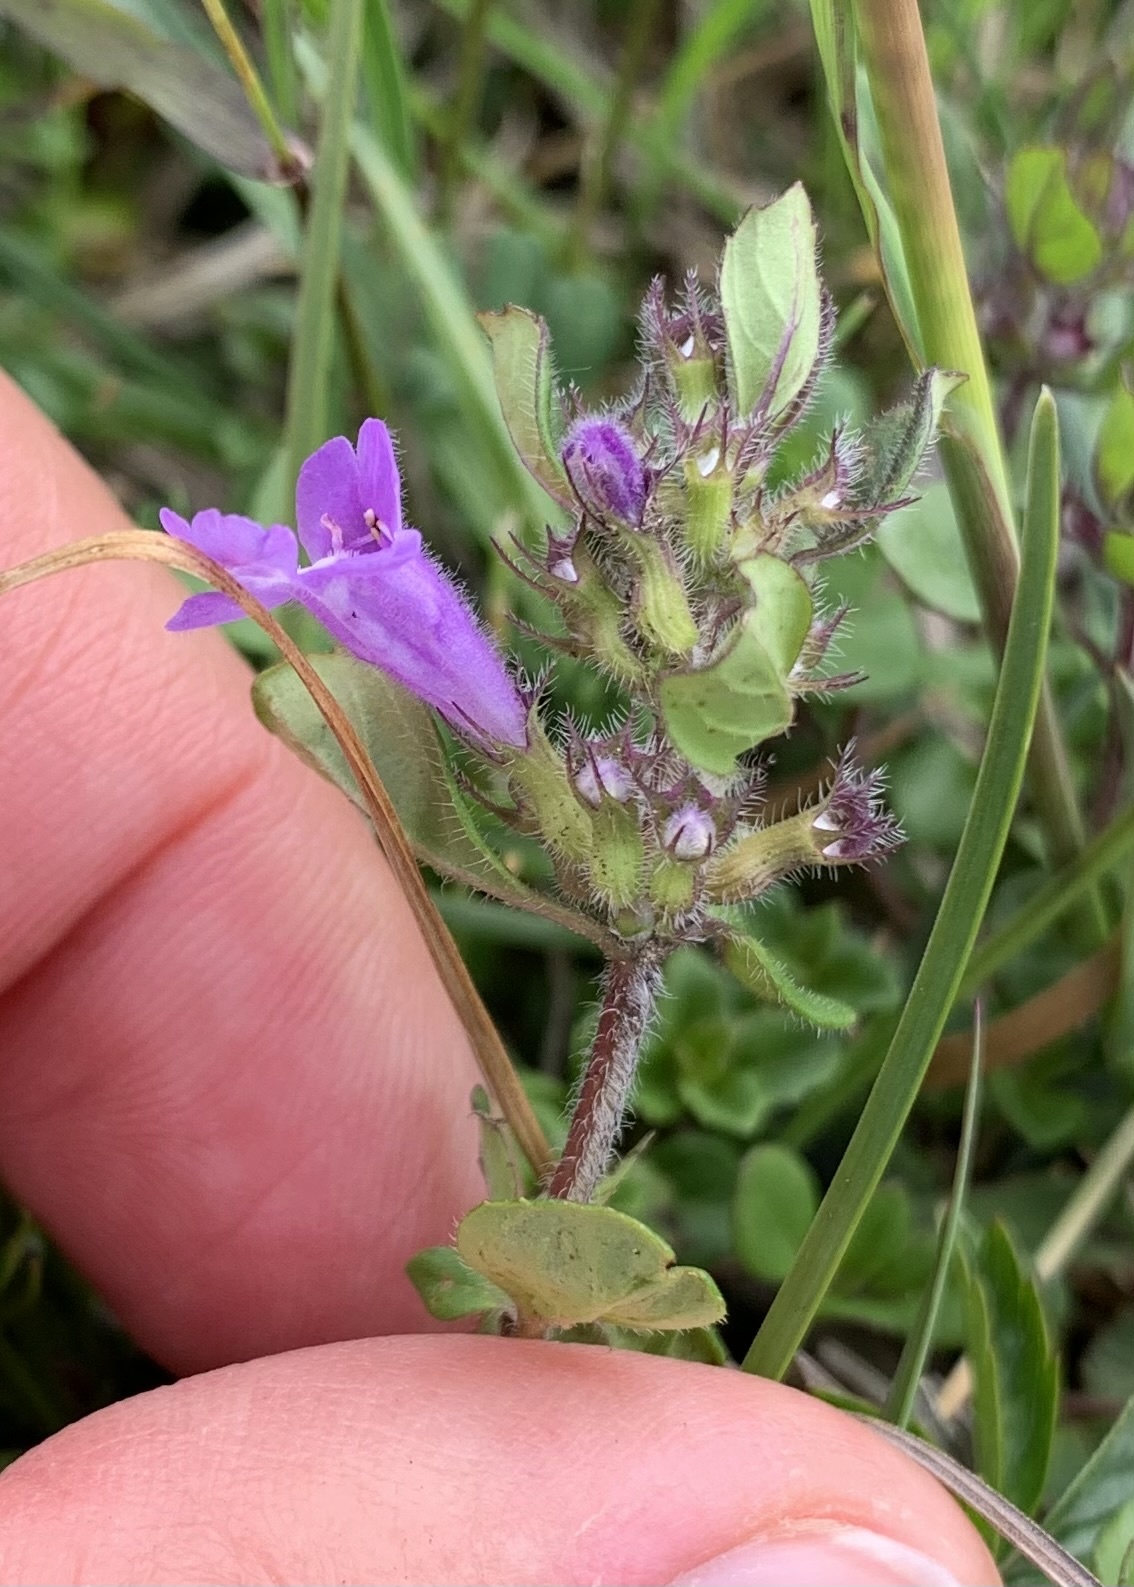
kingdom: Plantae
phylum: Tracheophyta
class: Magnoliopsida
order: Lamiales
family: Lamiaceae
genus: Clinopodium
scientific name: Clinopodium alpinum
